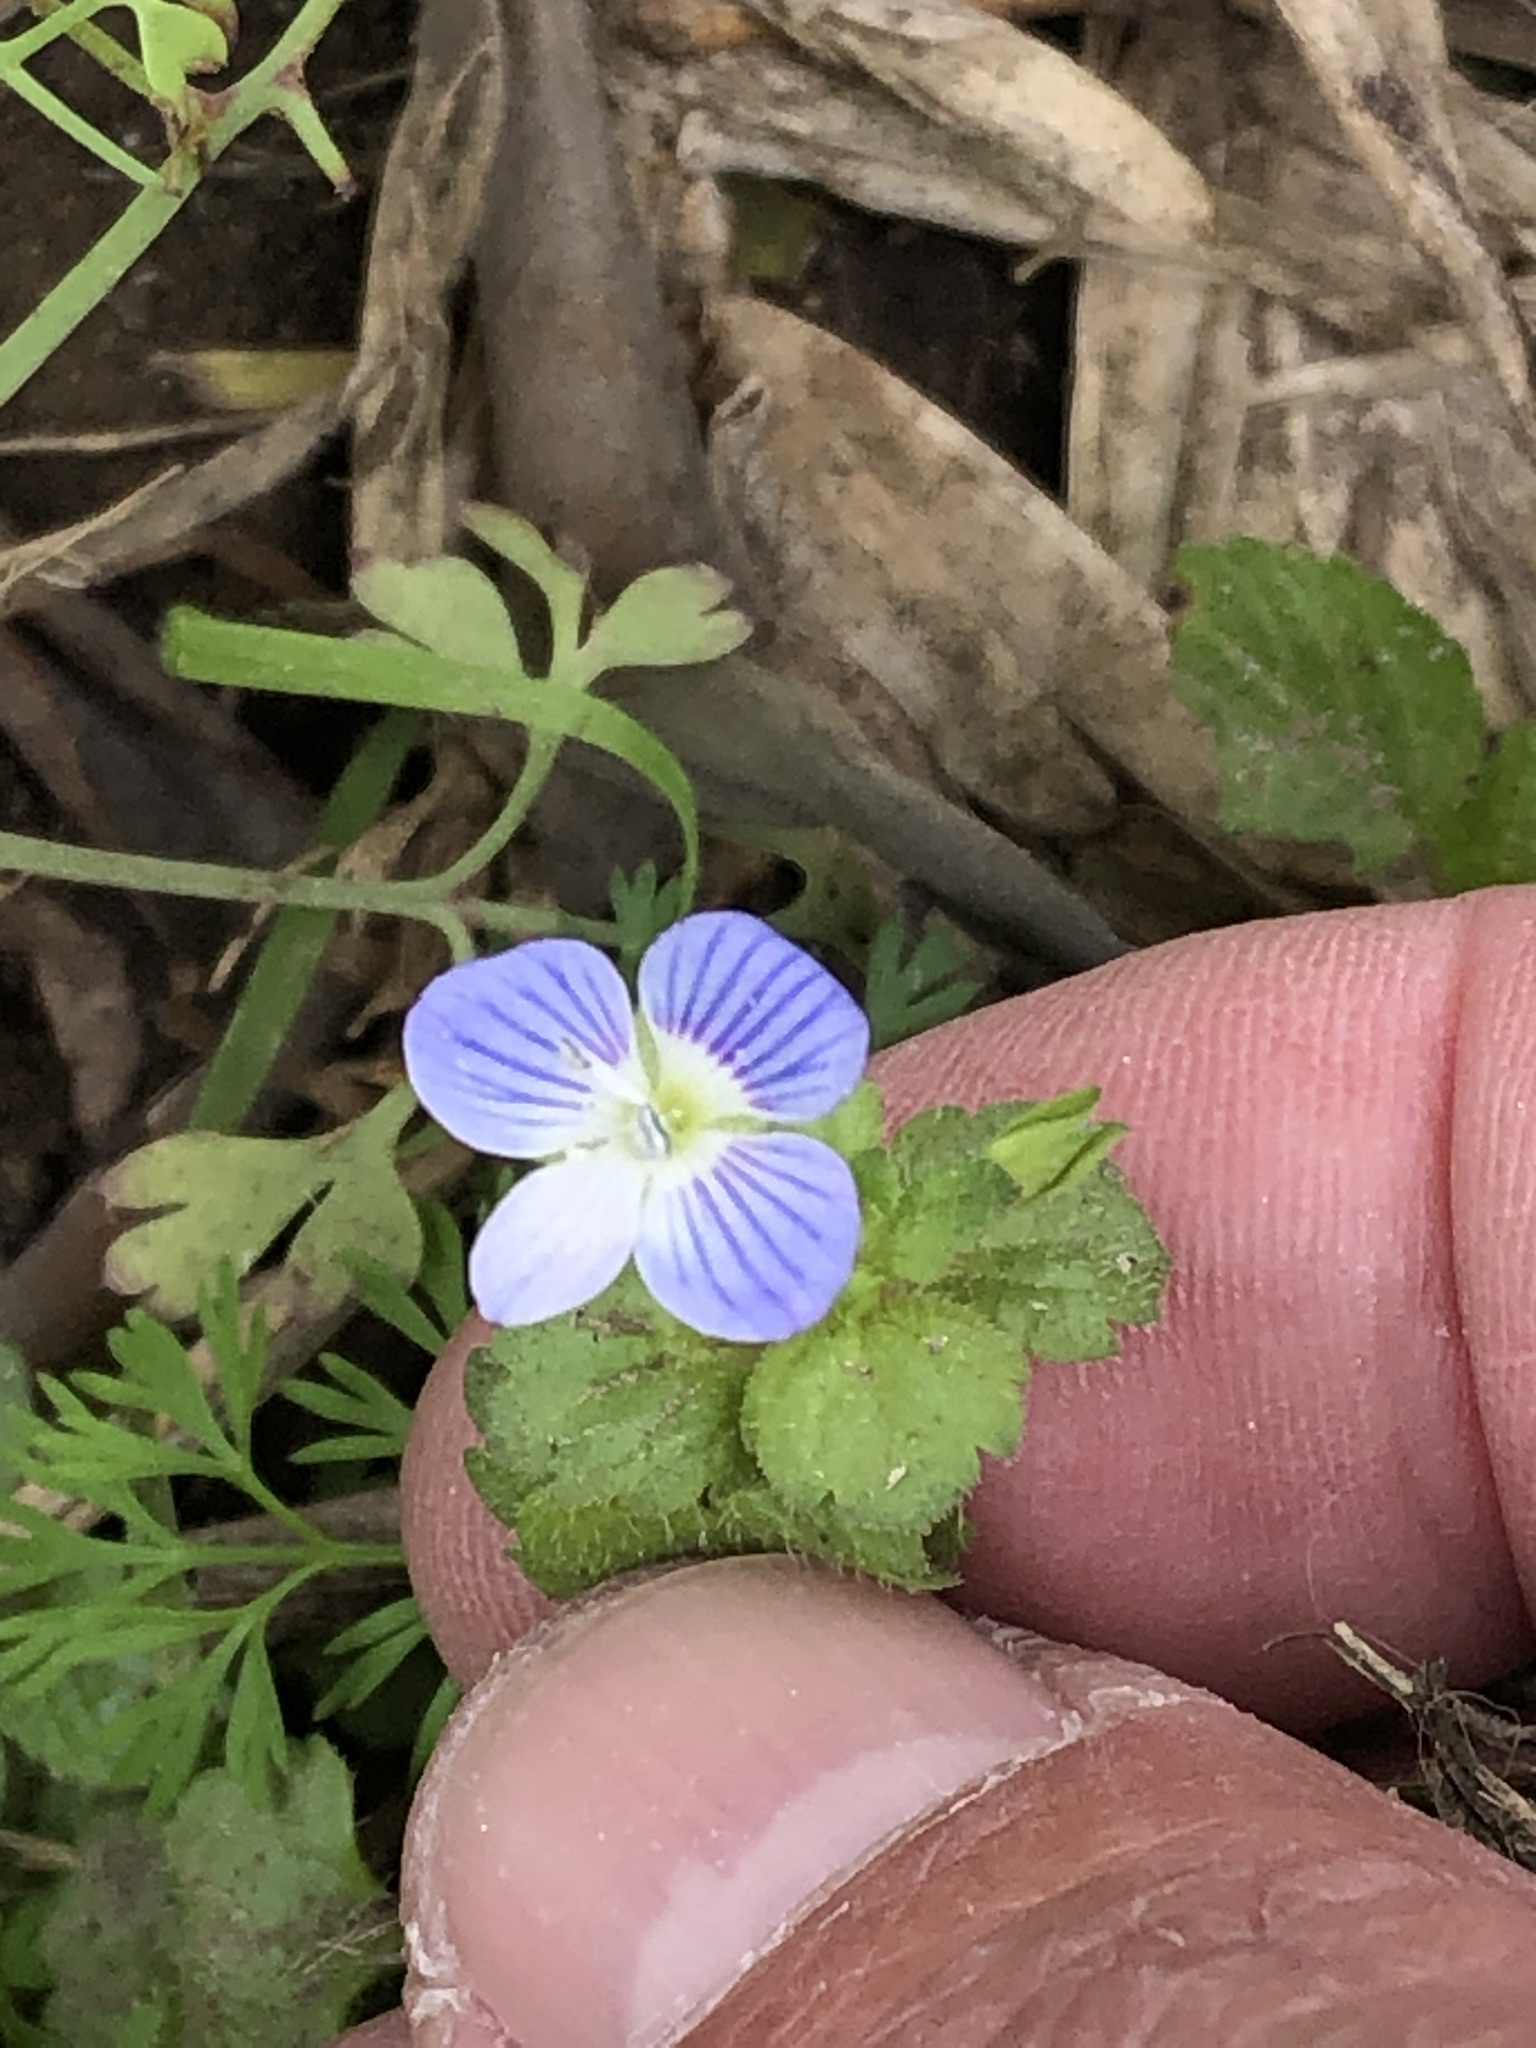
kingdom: Plantae
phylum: Tracheophyta
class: Magnoliopsida
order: Lamiales
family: Plantaginaceae
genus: Veronica
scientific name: Veronica persica
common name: Common field-speedwell
